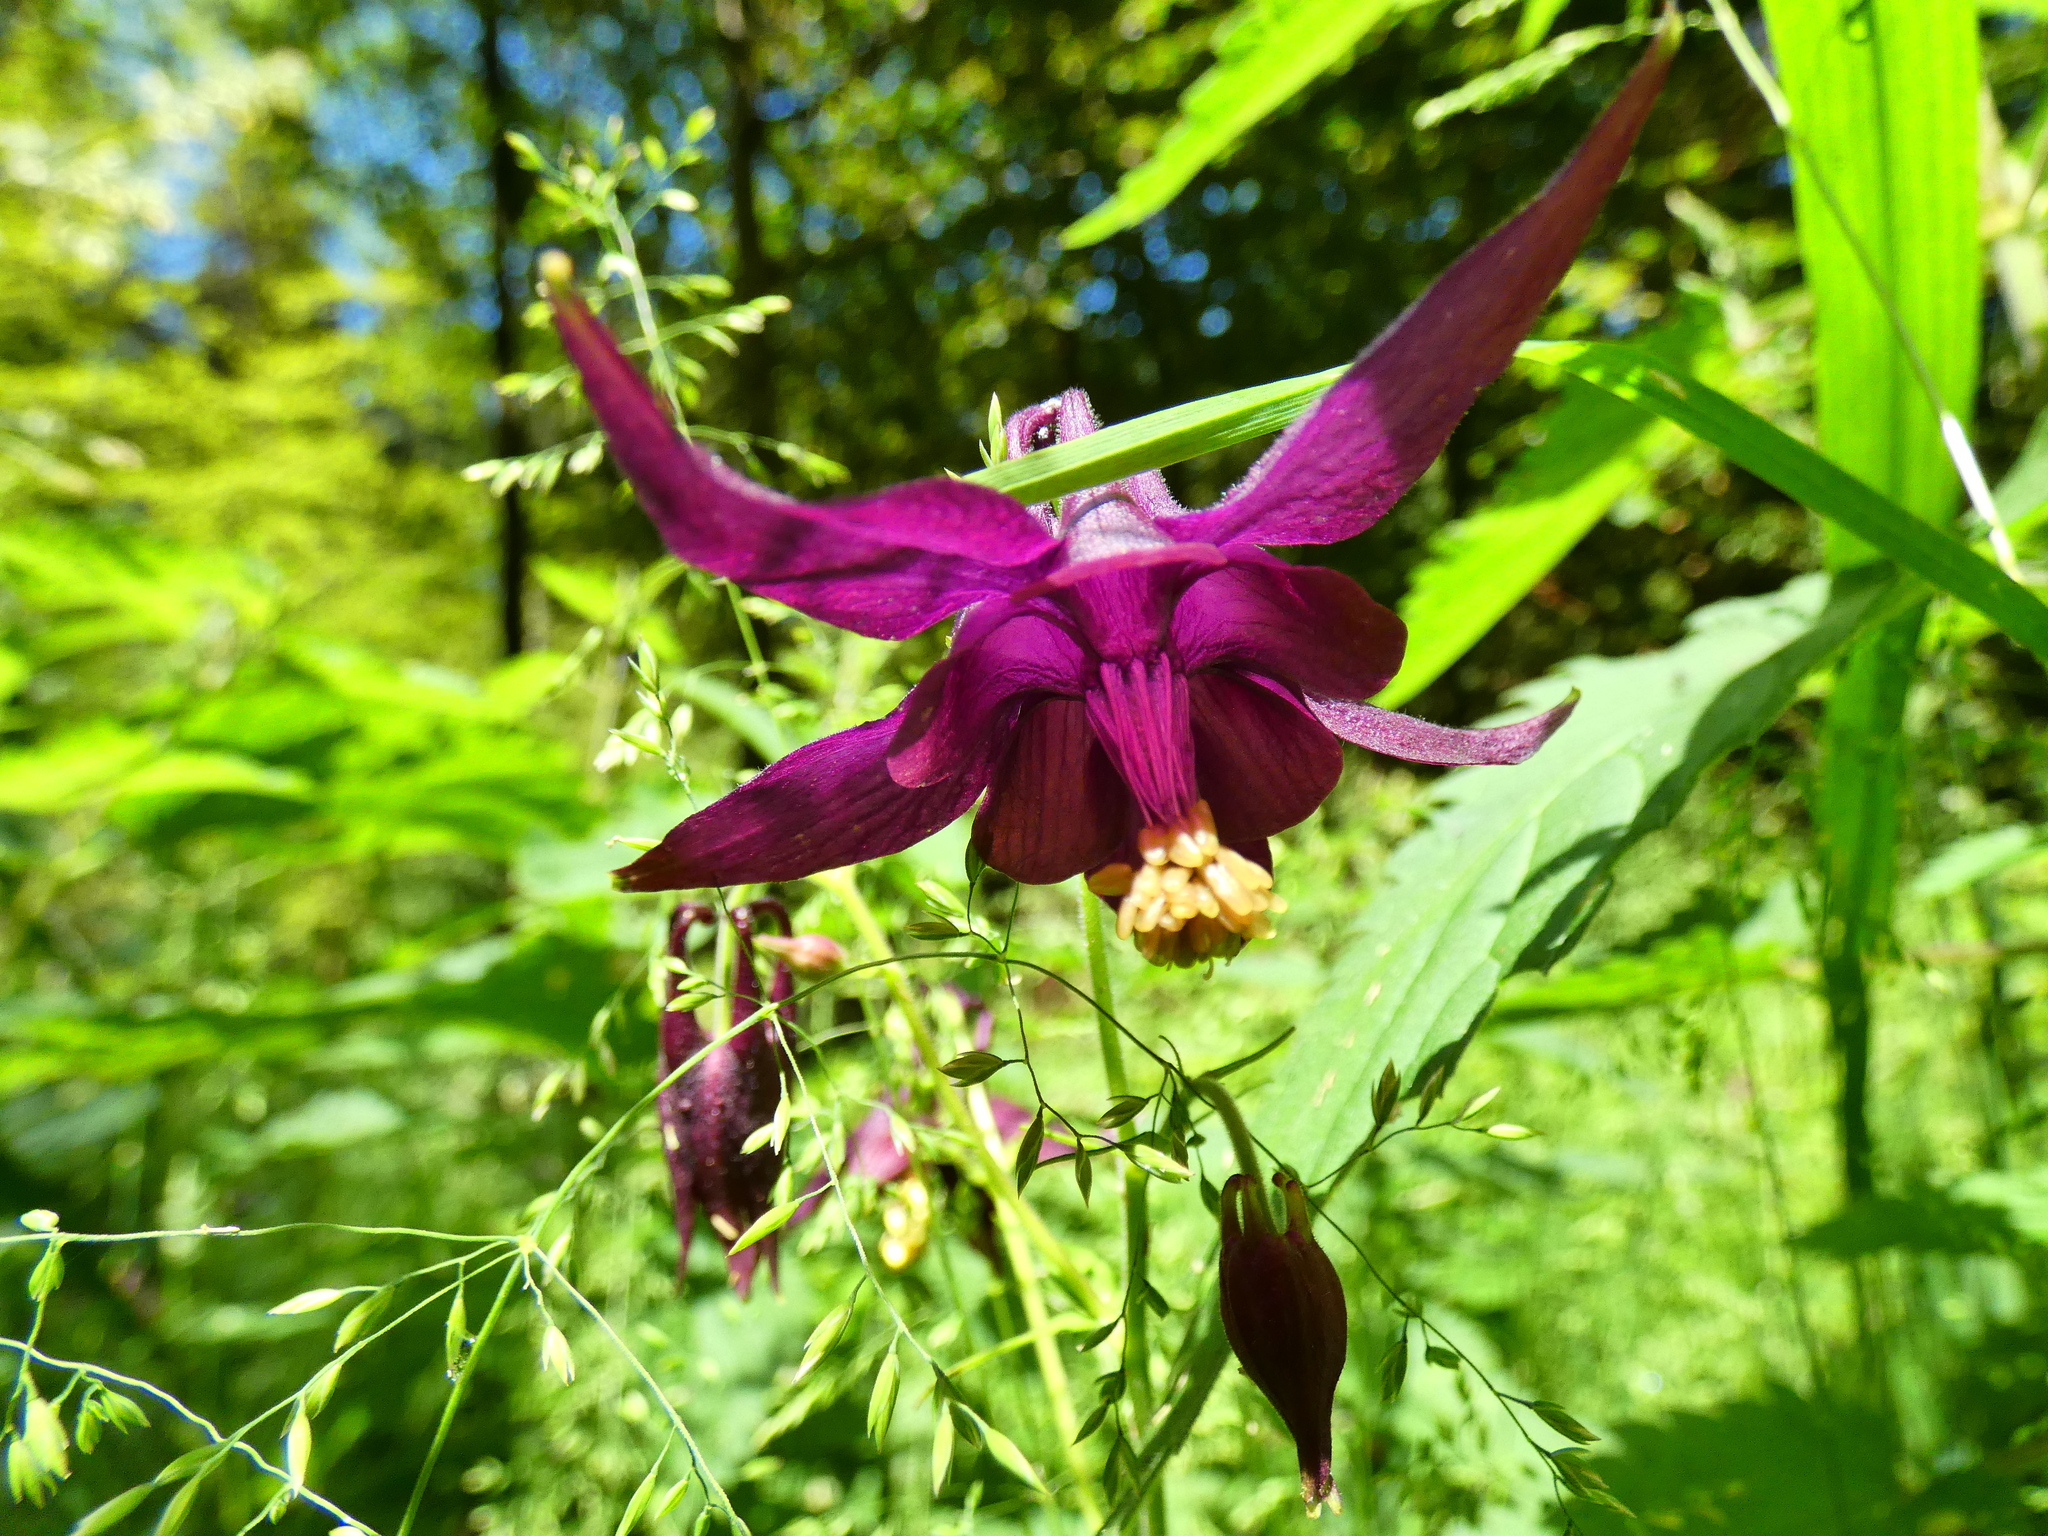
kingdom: Plantae
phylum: Tracheophyta
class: Magnoliopsida
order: Ranunculales
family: Ranunculaceae
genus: Aquilegia
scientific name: Aquilegia atrata
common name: Dark columbine
